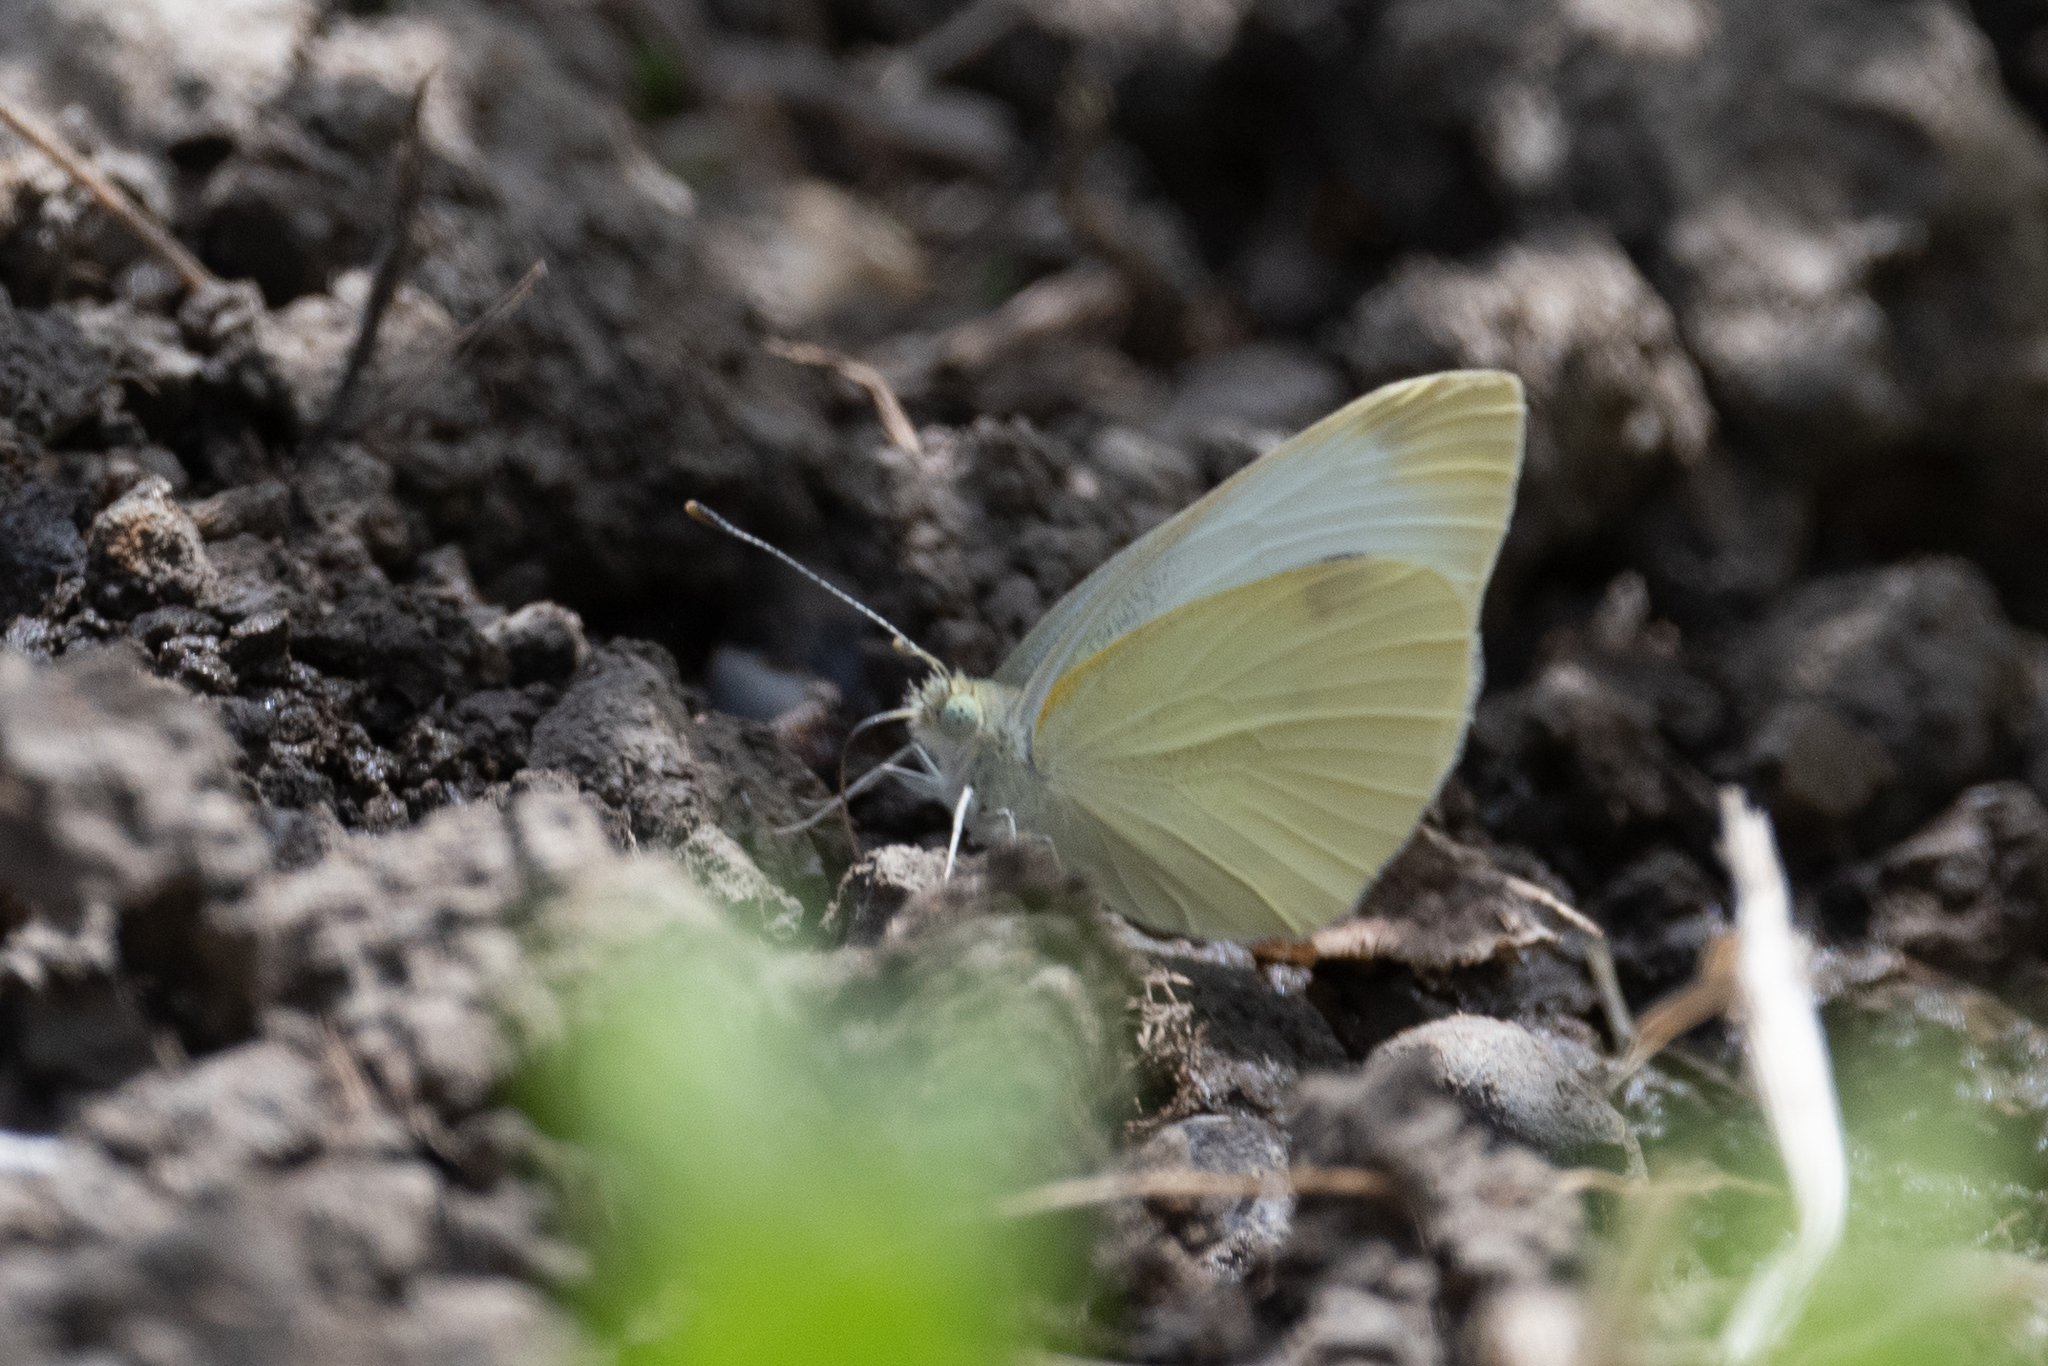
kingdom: Animalia
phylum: Arthropoda
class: Insecta
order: Lepidoptera
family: Pieridae
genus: Pieris
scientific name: Pieris rapae
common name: Small white
